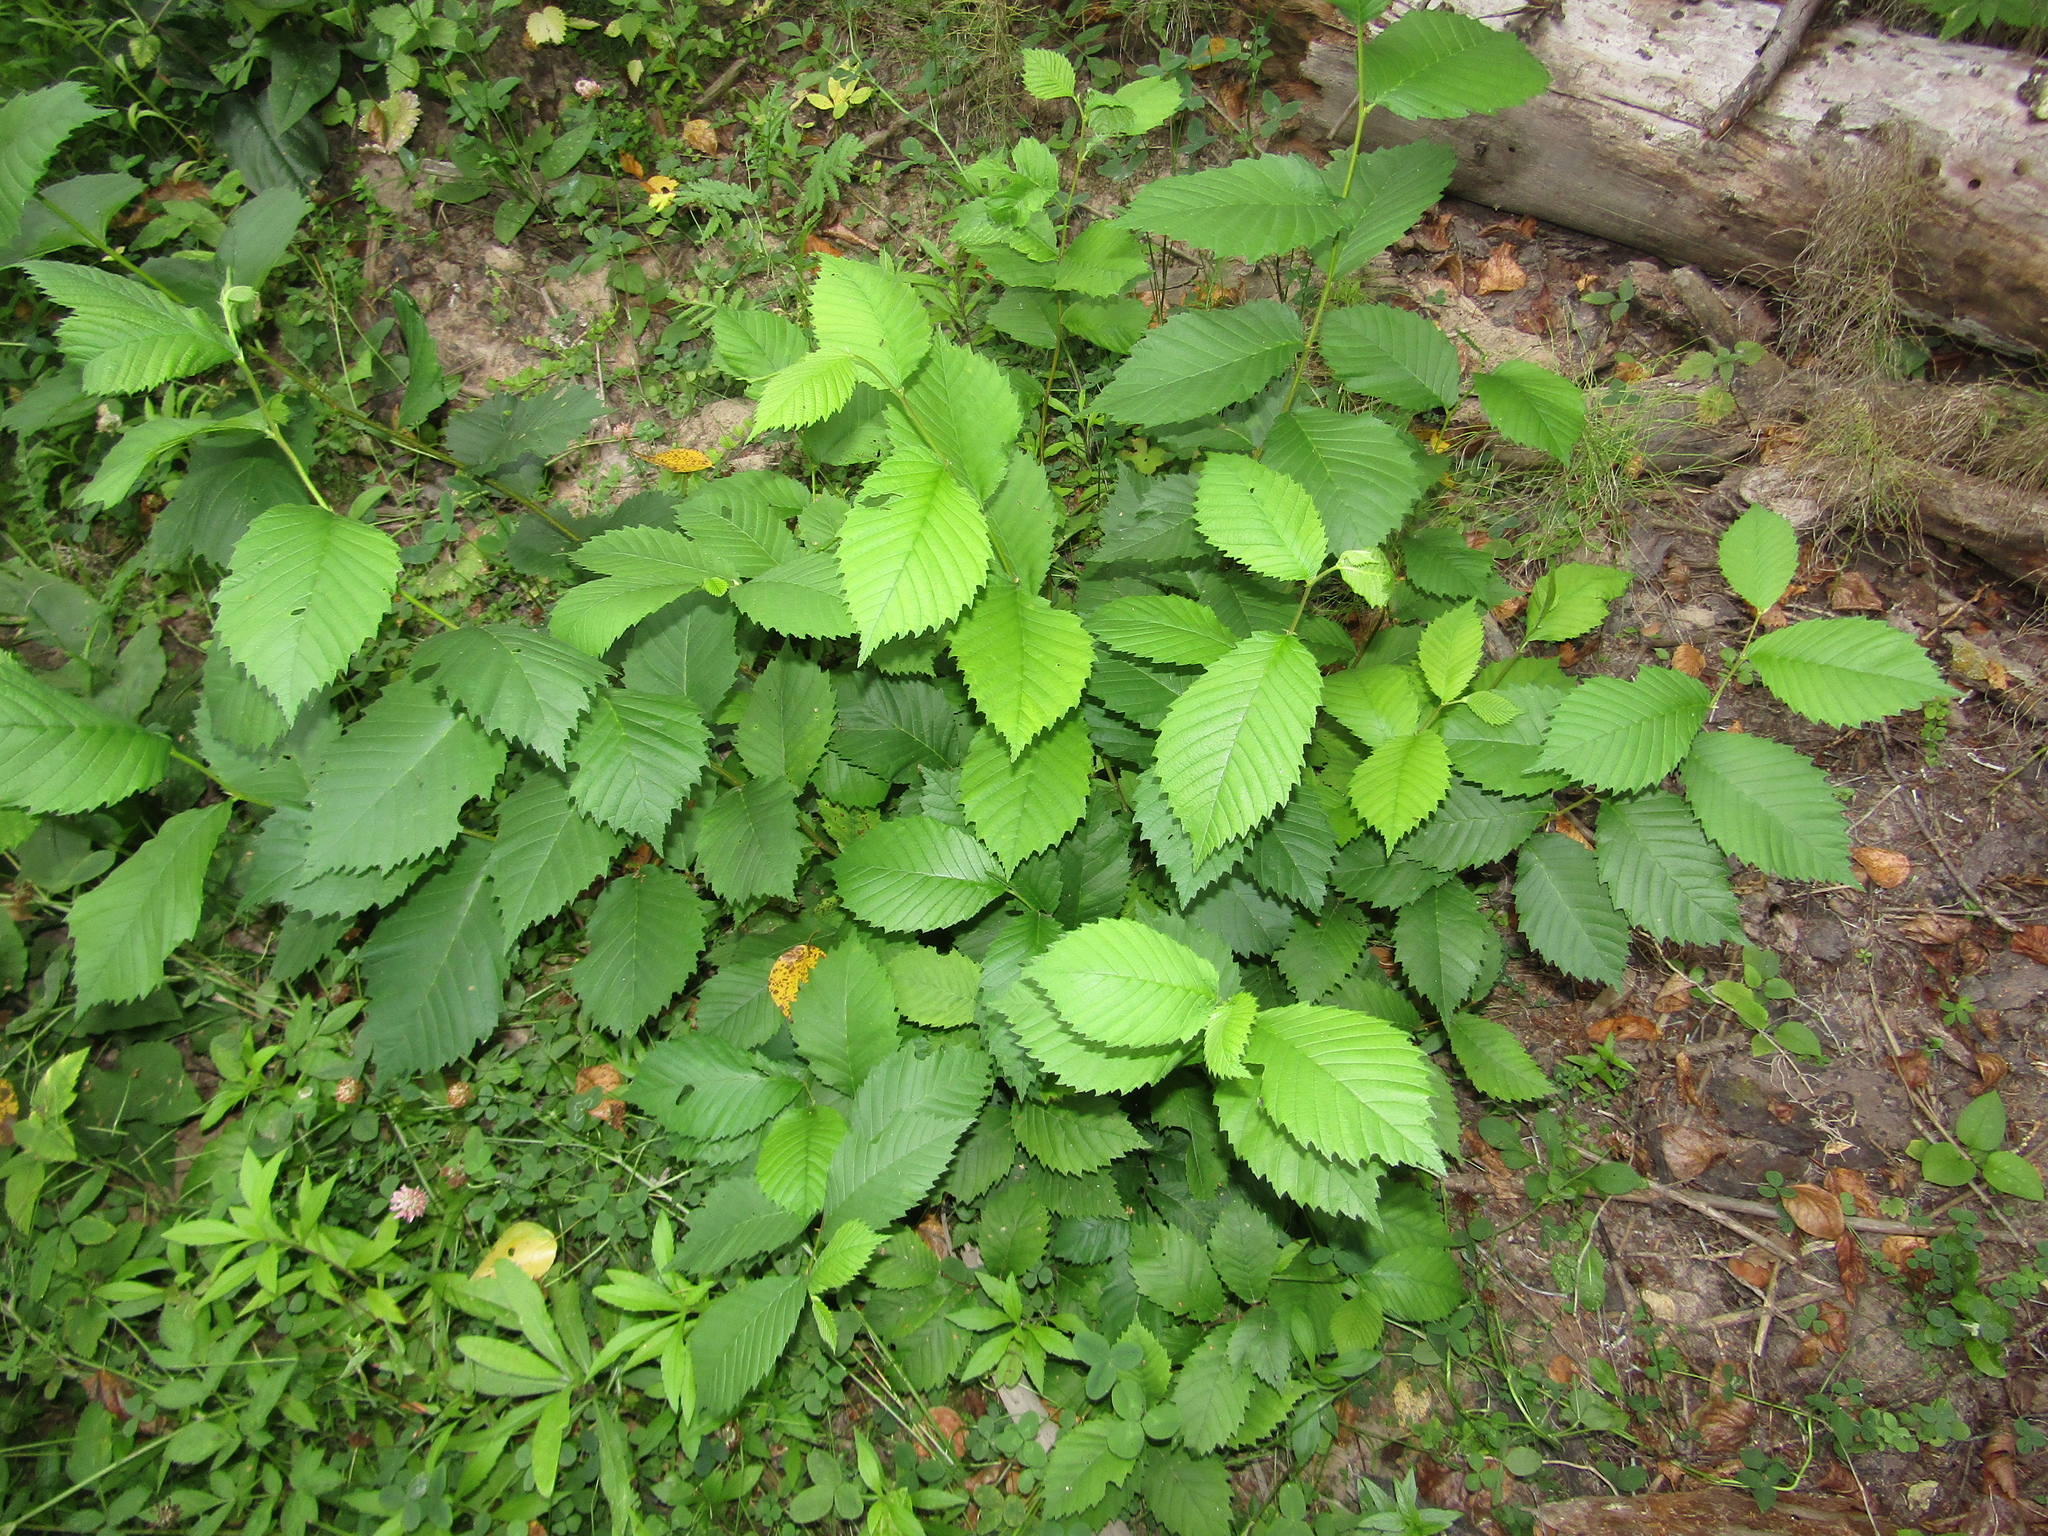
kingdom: Plantae
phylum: Tracheophyta
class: Magnoliopsida
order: Rosales
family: Ulmaceae
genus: Ulmus
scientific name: Ulmus laevis
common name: European white-elm
